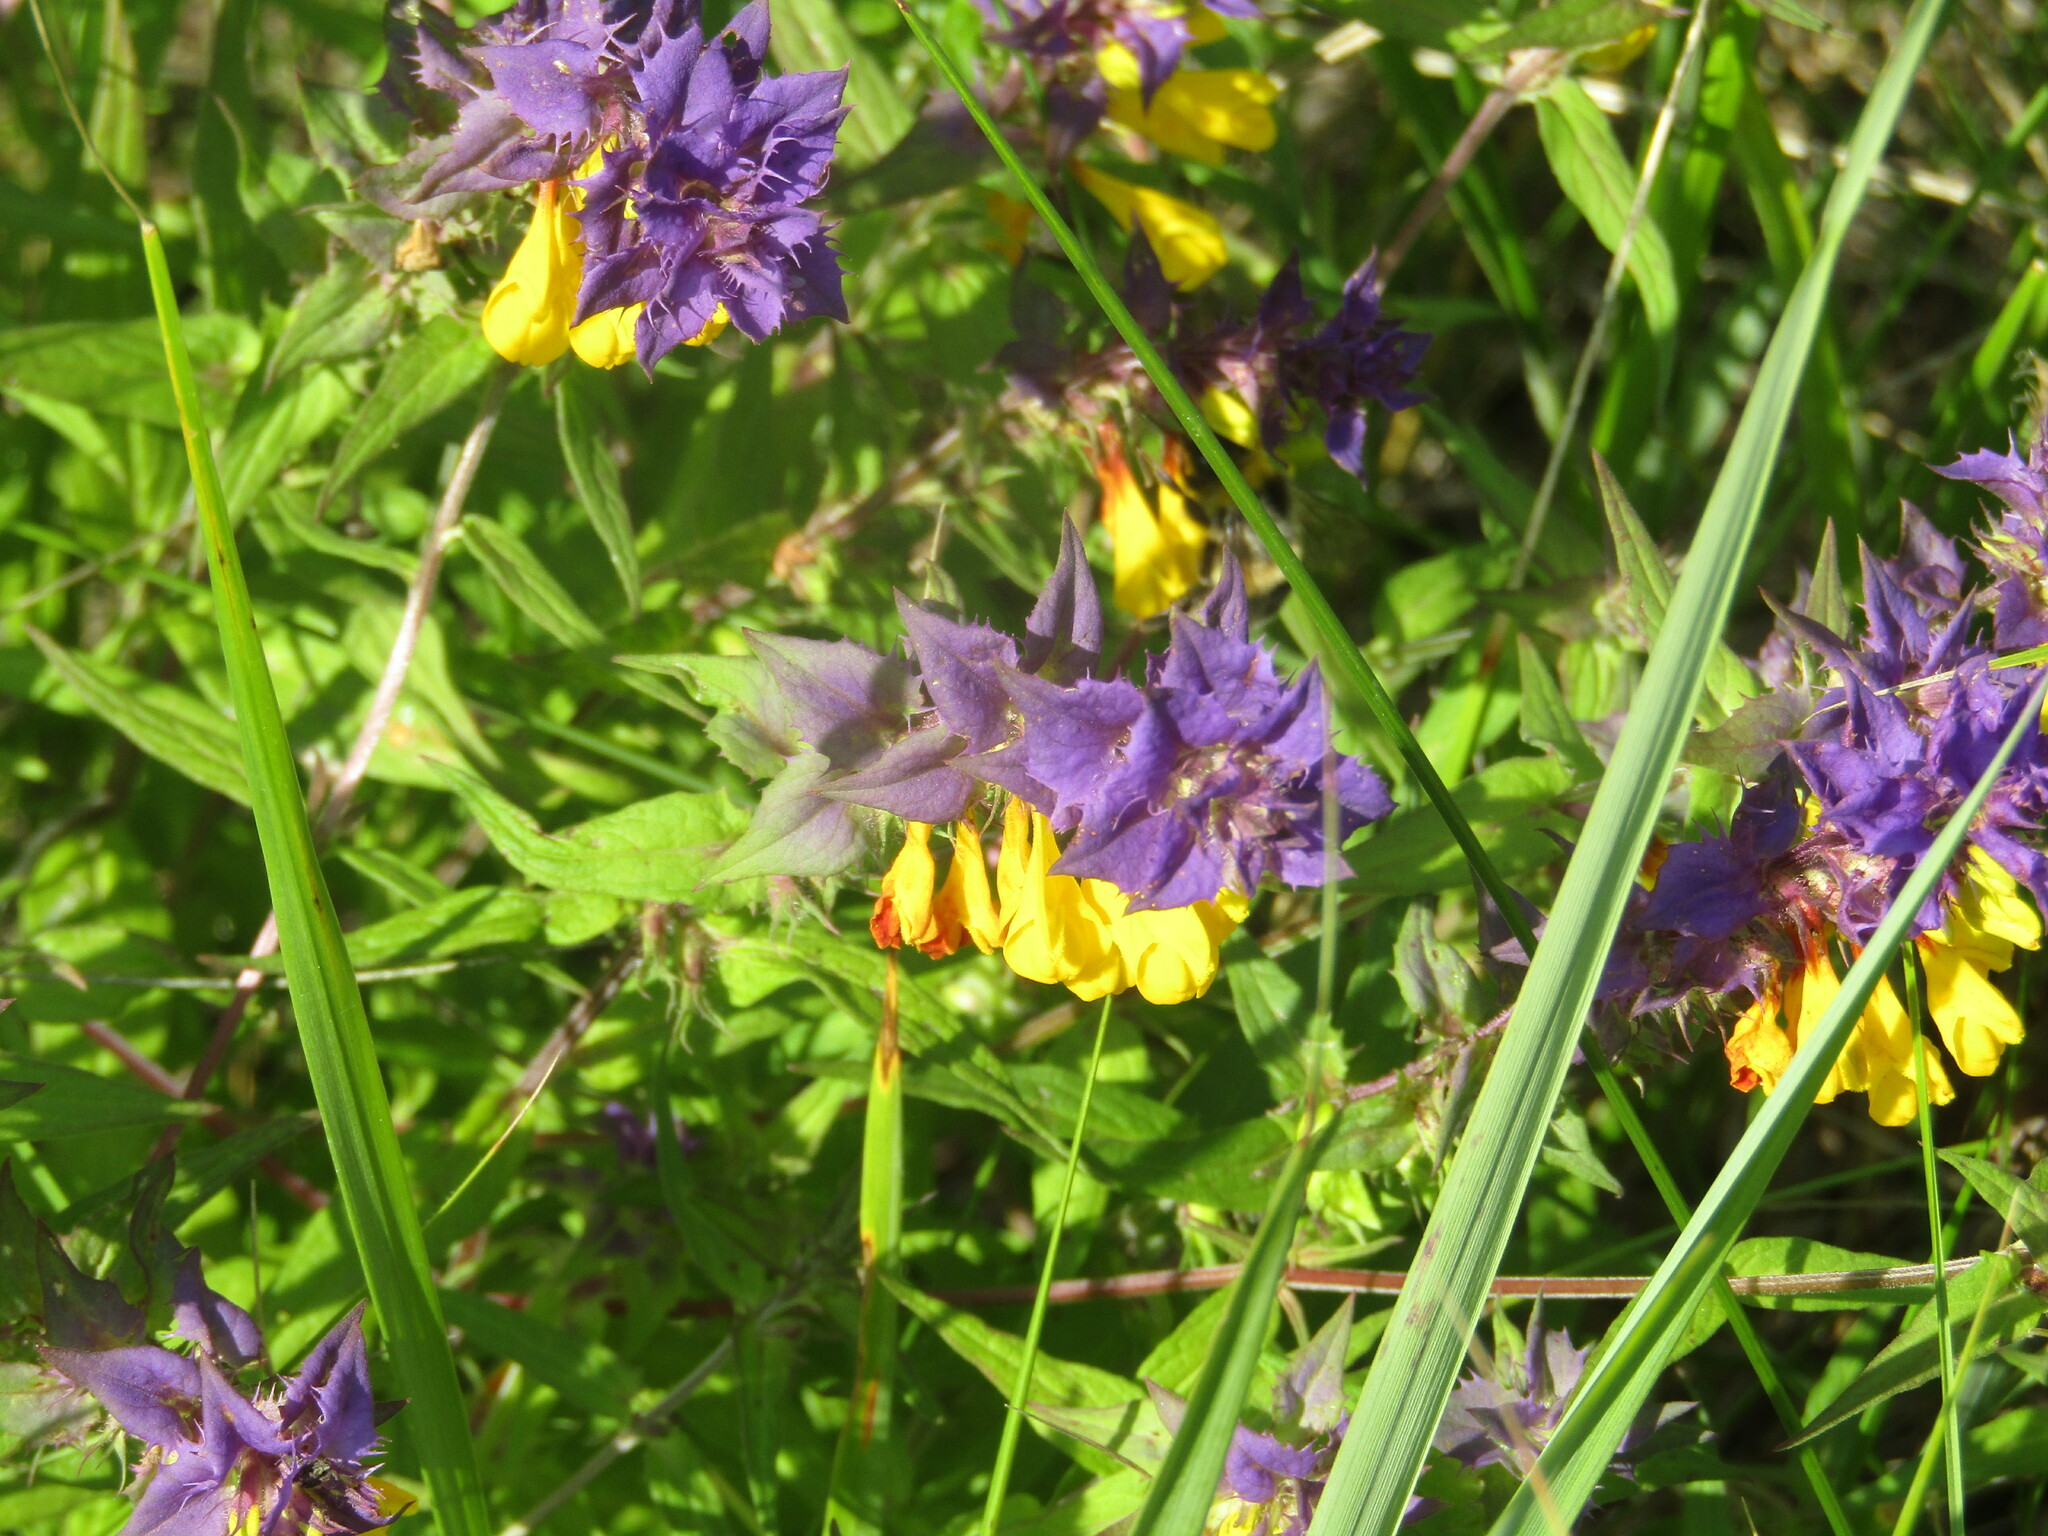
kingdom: Plantae
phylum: Tracheophyta
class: Magnoliopsida
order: Lamiales
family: Orobanchaceae
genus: Melampyrum
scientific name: Melampyrum nemorosum
